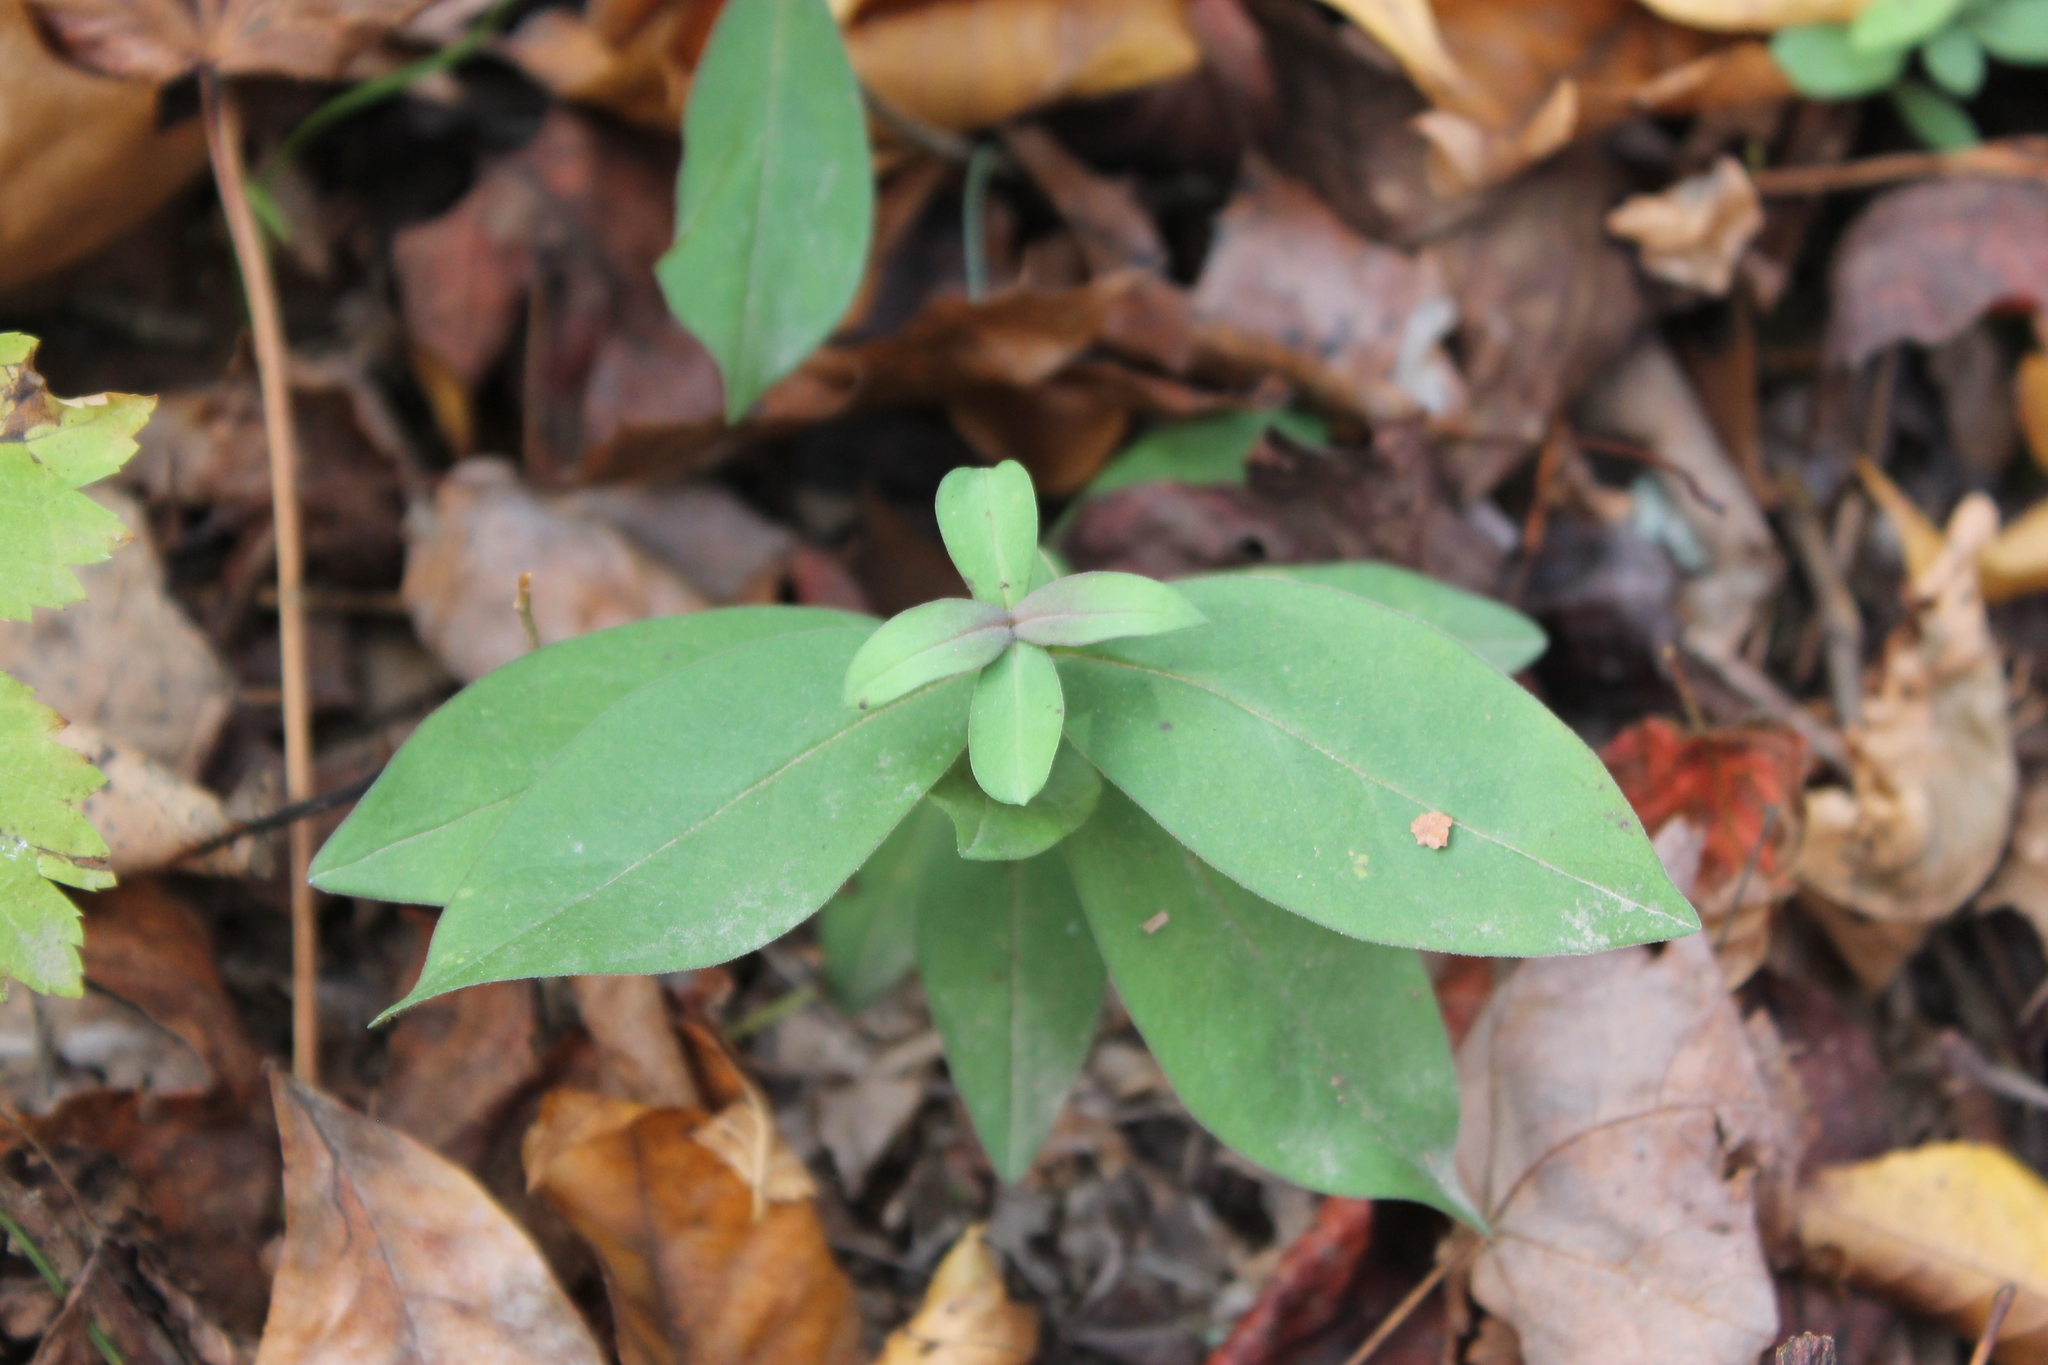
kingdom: Plantae
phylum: Tracheophyta
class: Magnoliopsida
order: Gentianales
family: Gentianaceae
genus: Gentiana
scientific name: Gentiana villosa
